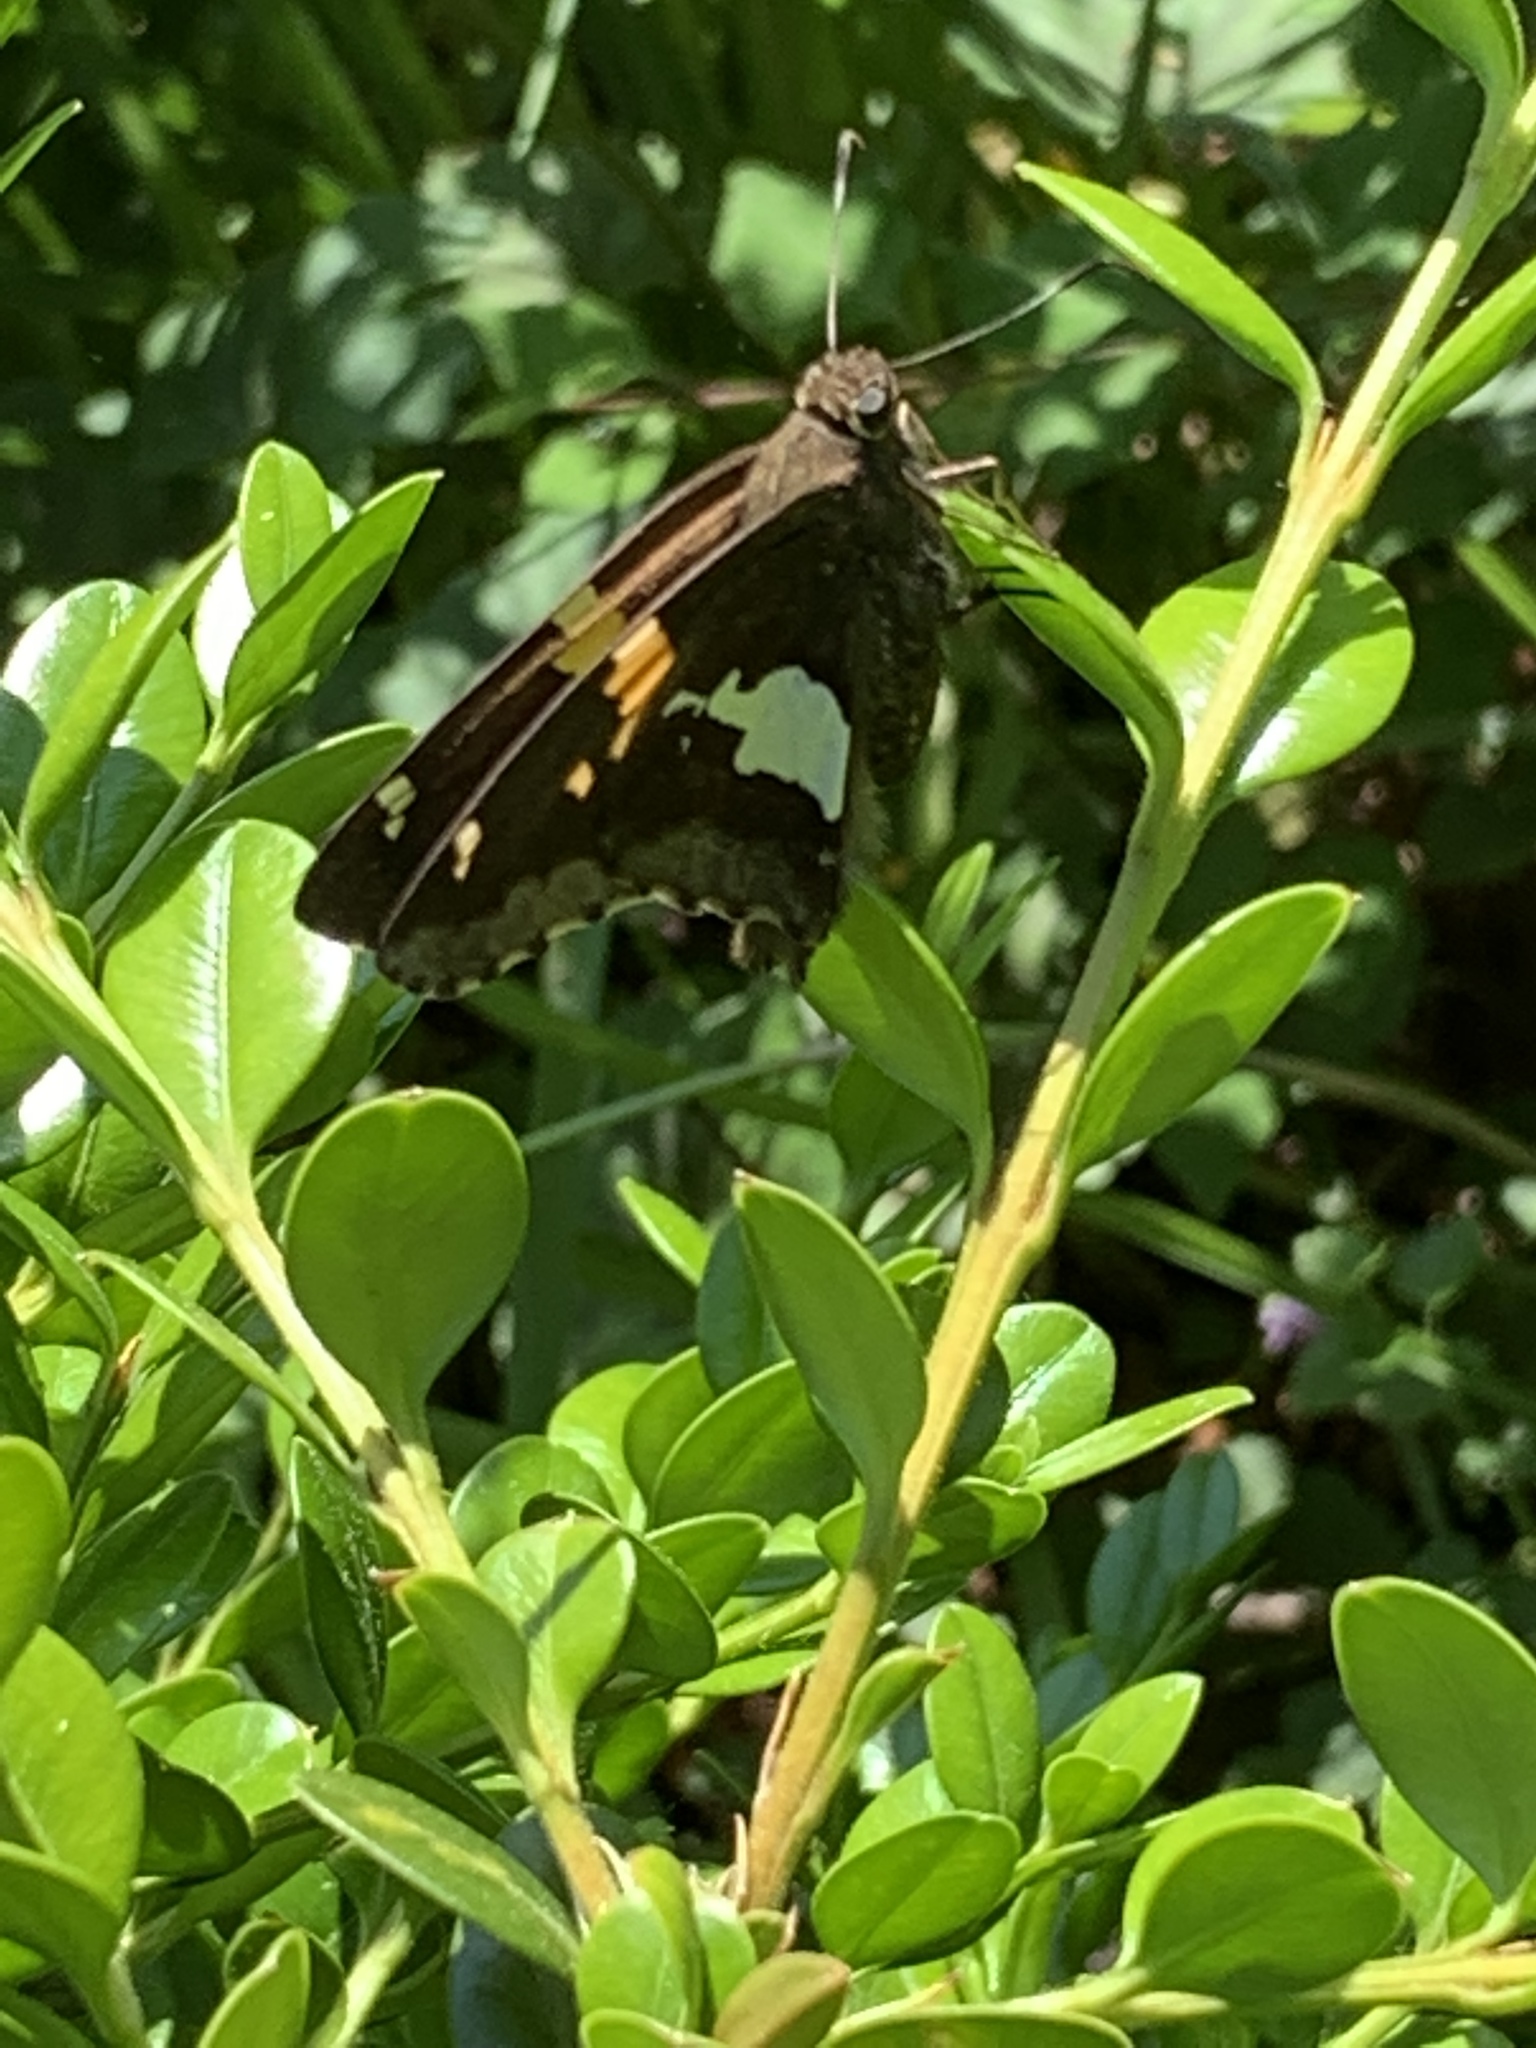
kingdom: Animalia
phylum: Arthropoda
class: Insecta
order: Lepidoptera
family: Hesperiidae
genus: Epargyreus
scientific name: Epargyreus clarus
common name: Silver-spotted skipper
